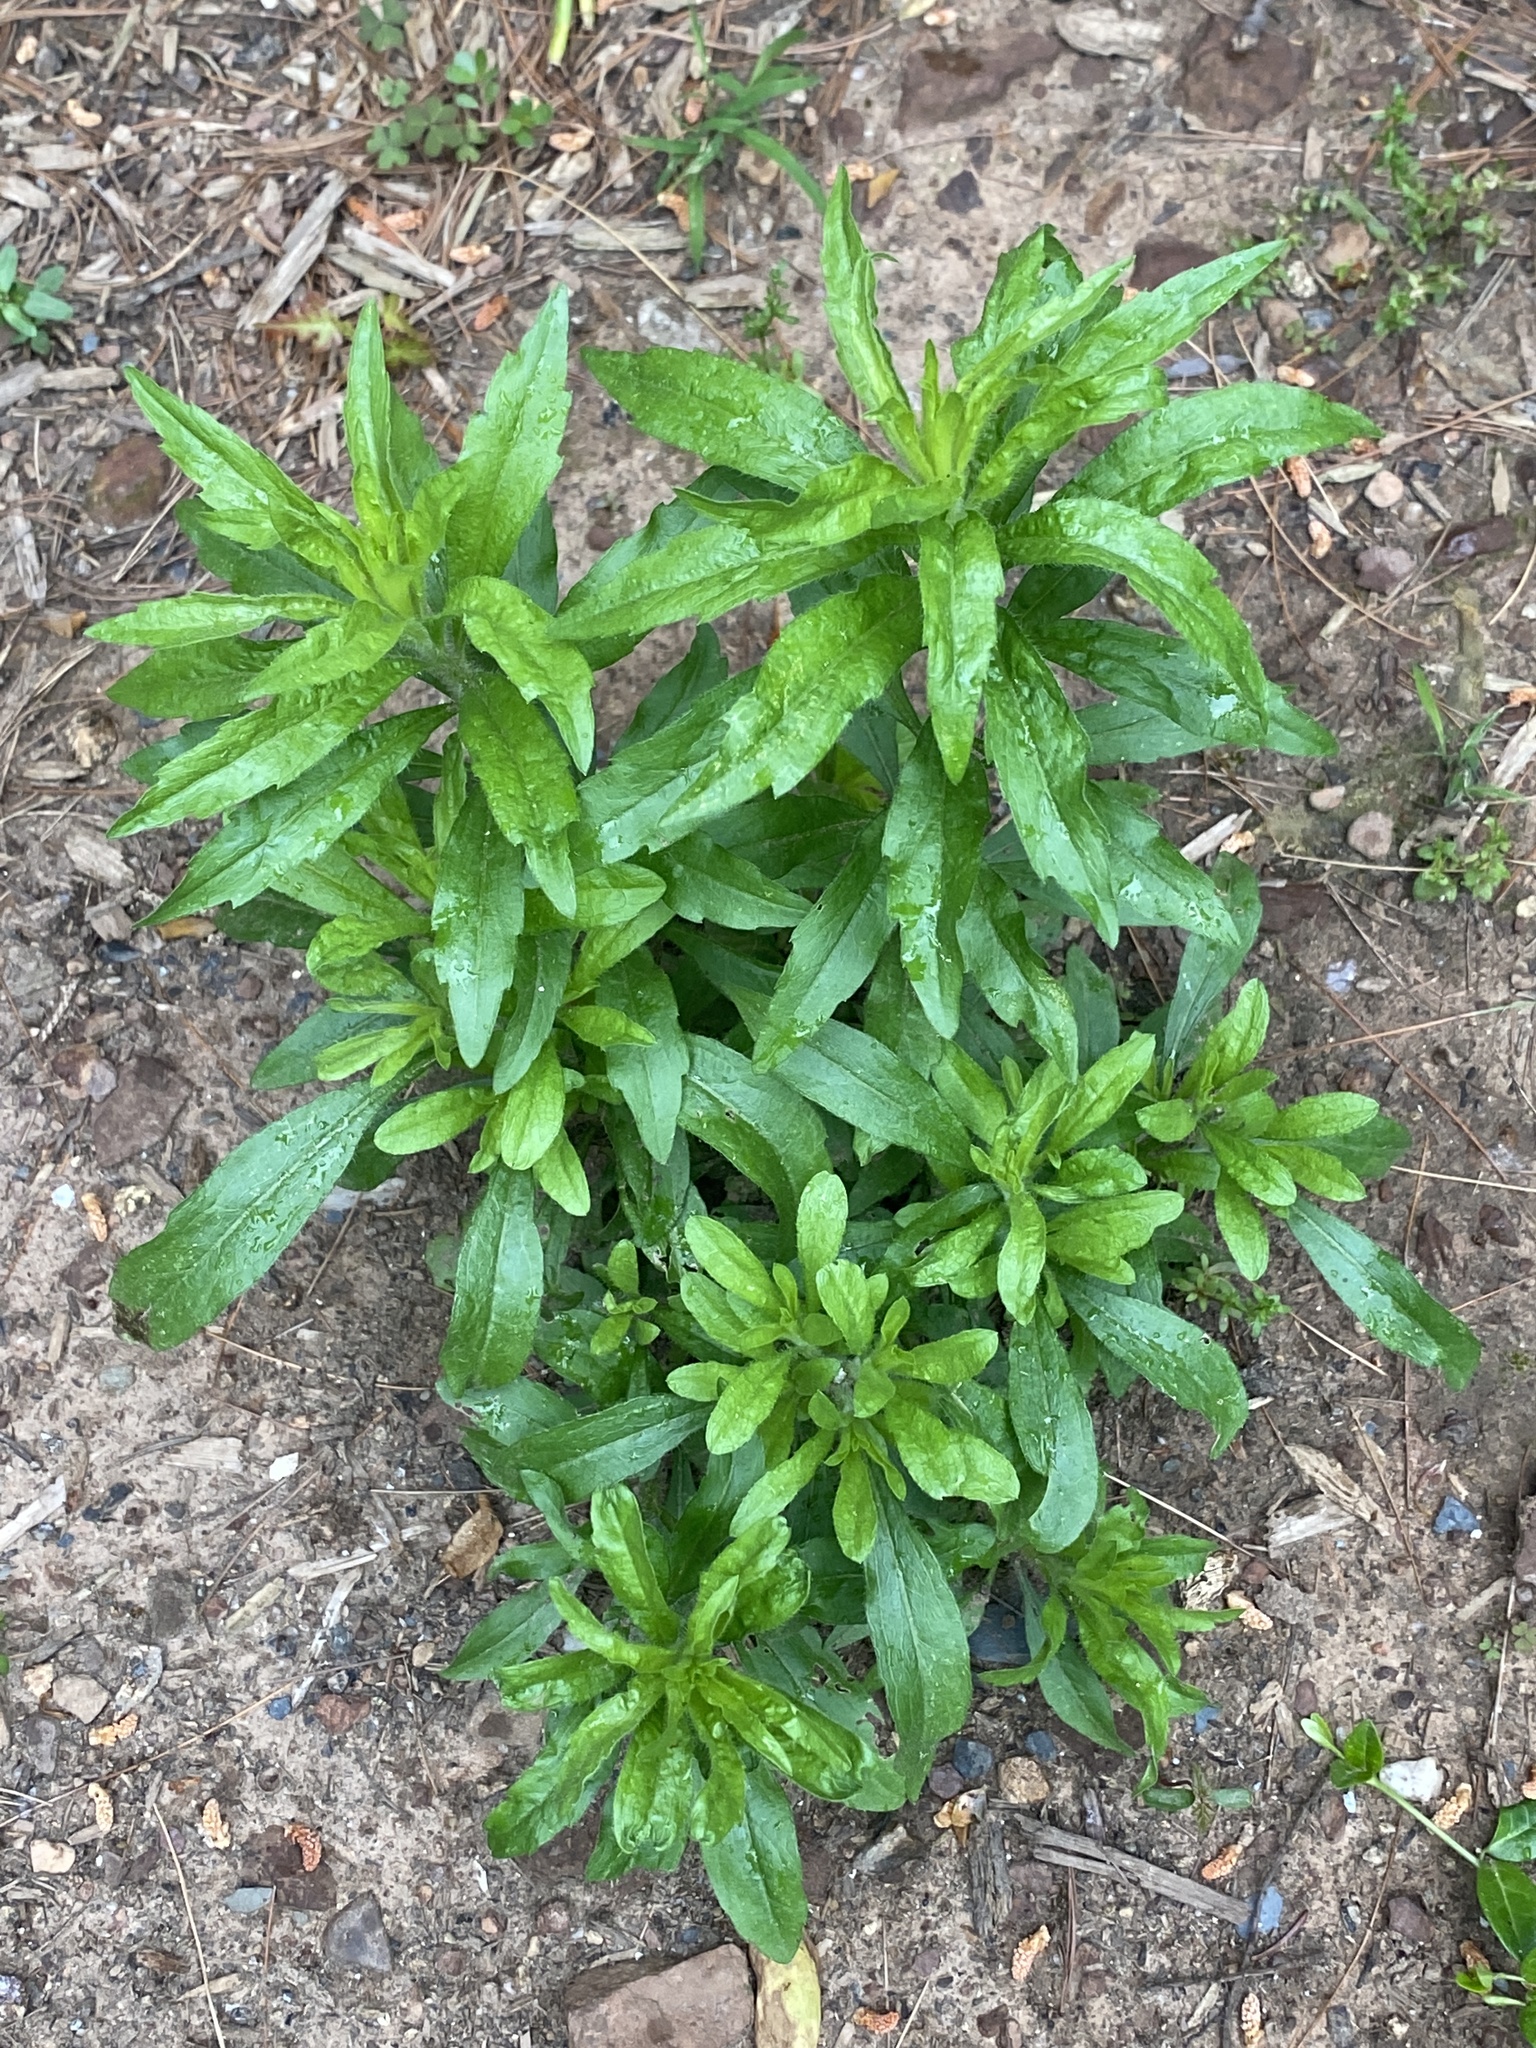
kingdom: Plantae
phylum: Tracheophyta
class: Magnoliopsida
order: Asterales
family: Asteraceae
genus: Erigeron
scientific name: Erigeron canadensis
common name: Canadian fleabane
